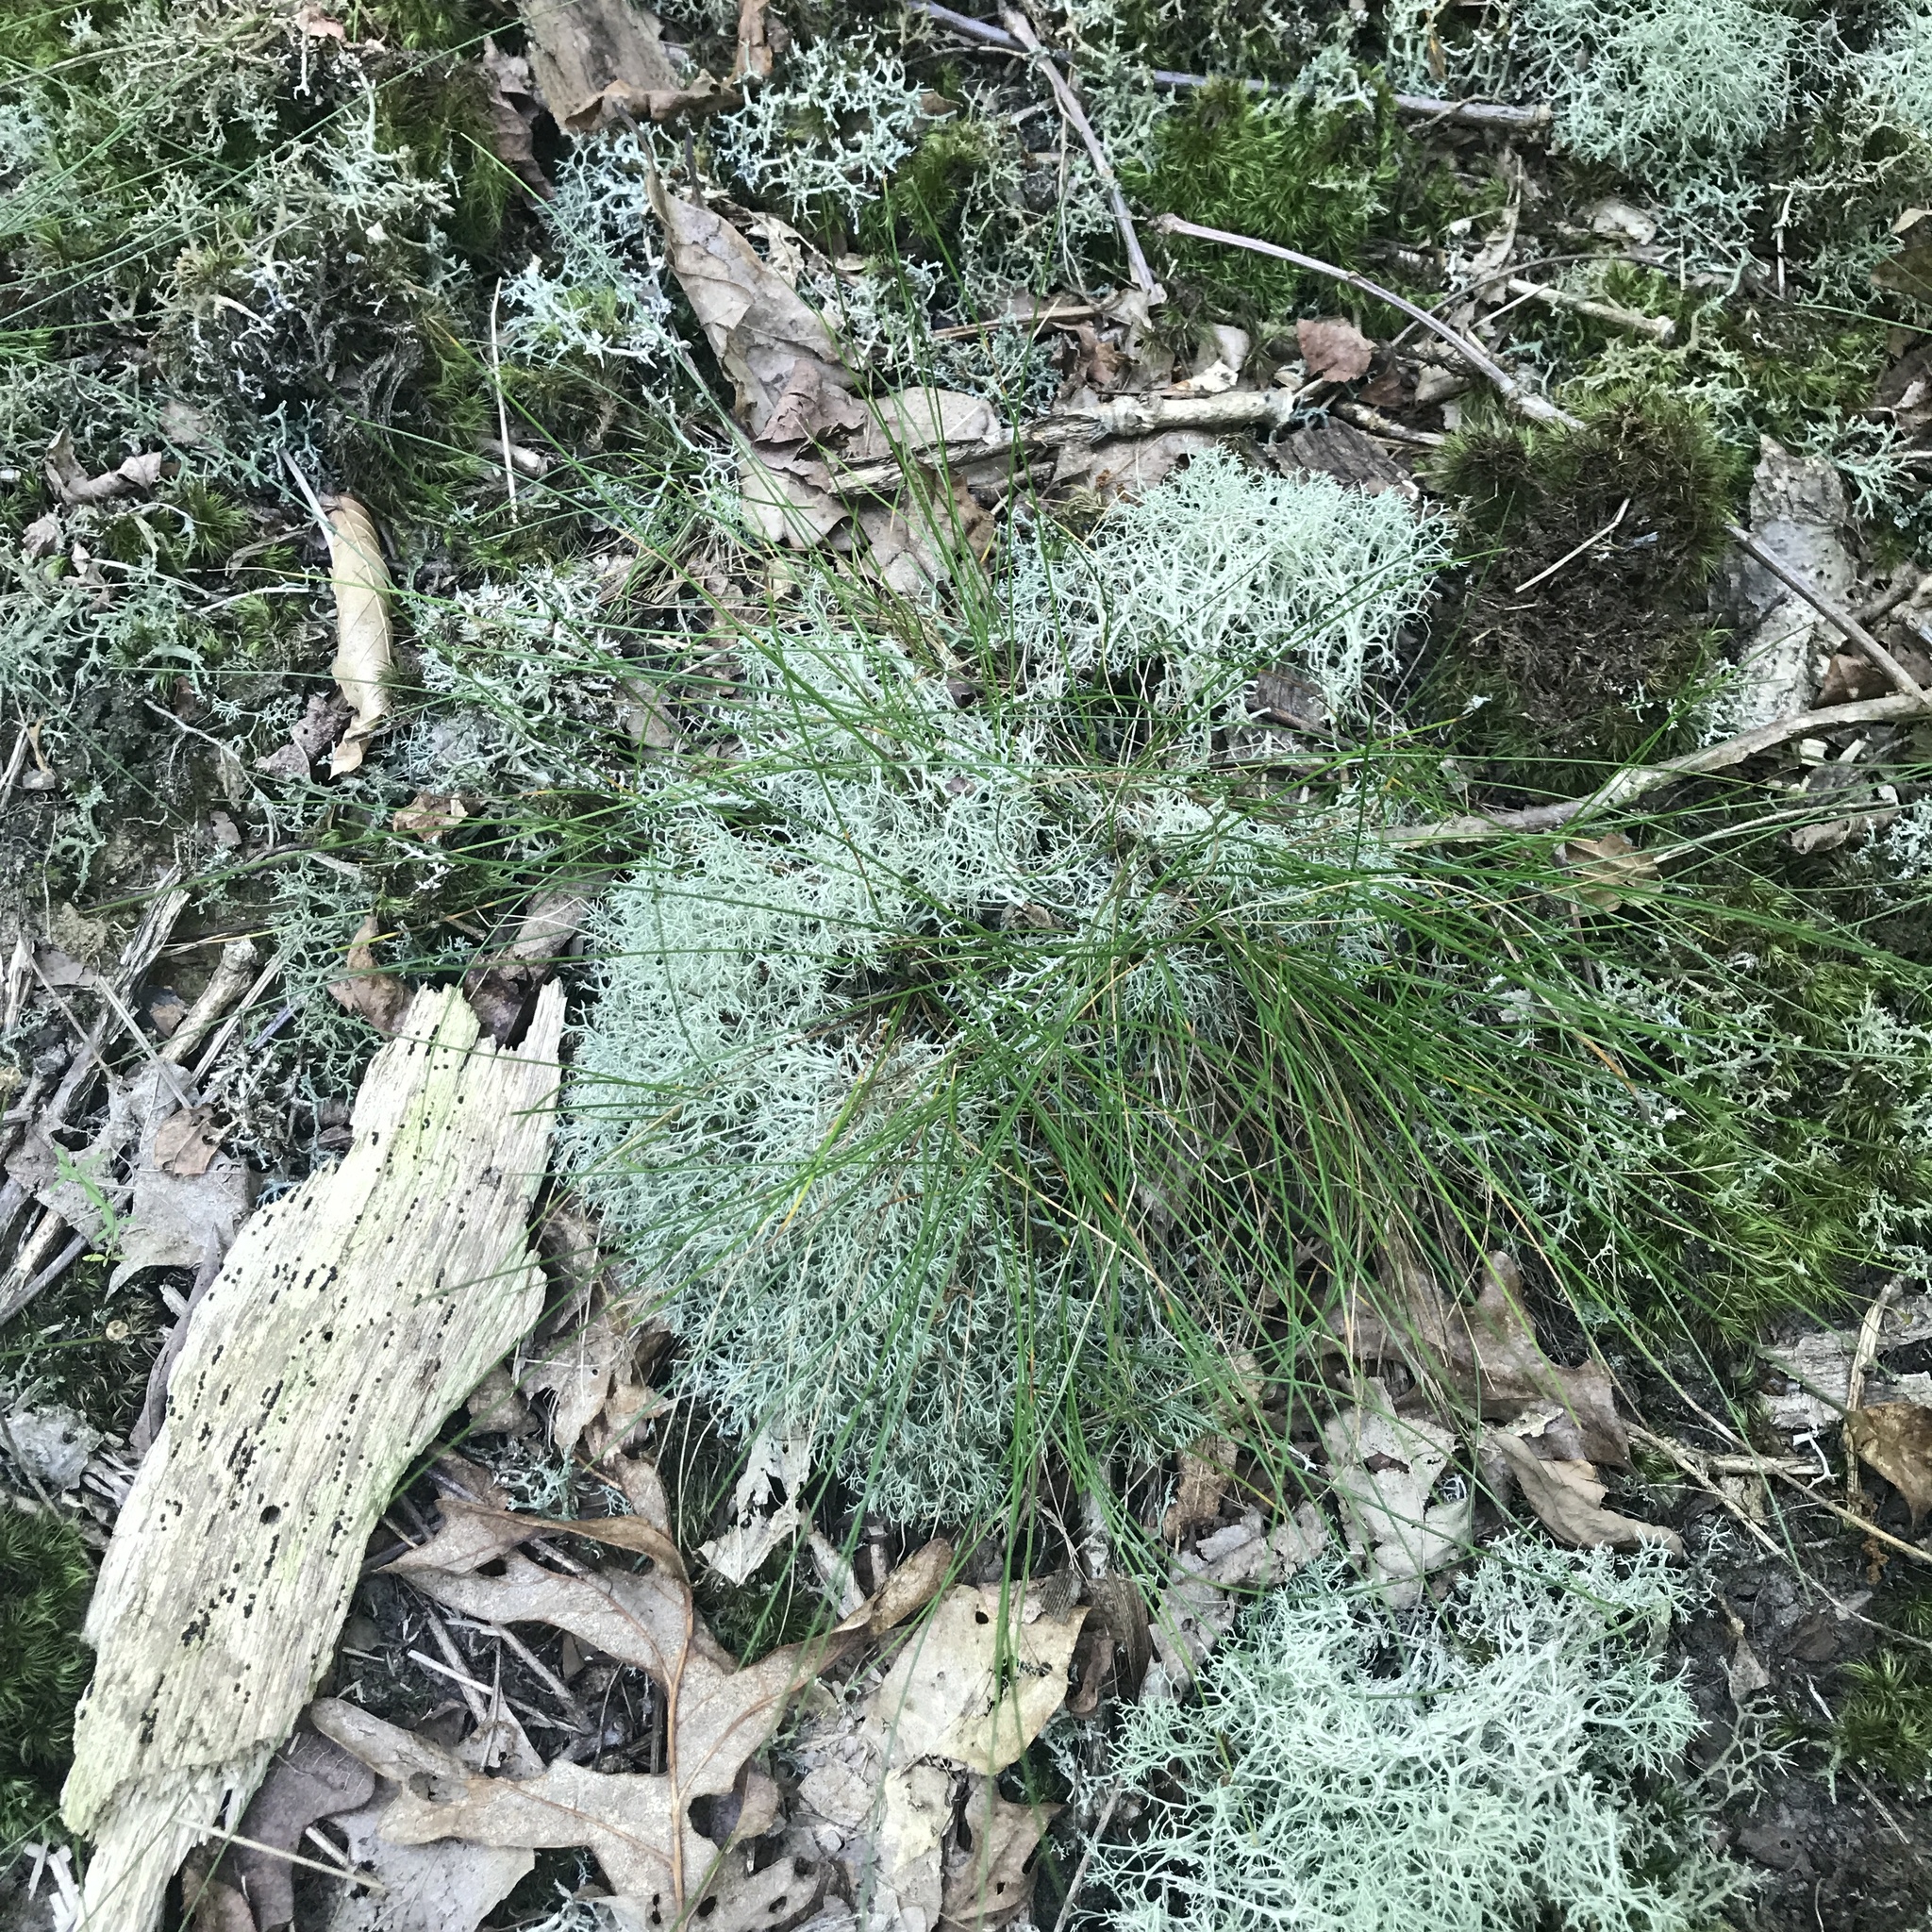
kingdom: Fungi
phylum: Ascomycota
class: Lecanoromycetes
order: Lecanorales
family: Cladoniaceae
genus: Cladonia
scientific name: Cladonia subtenuis
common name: Dixie reindeer lichen
